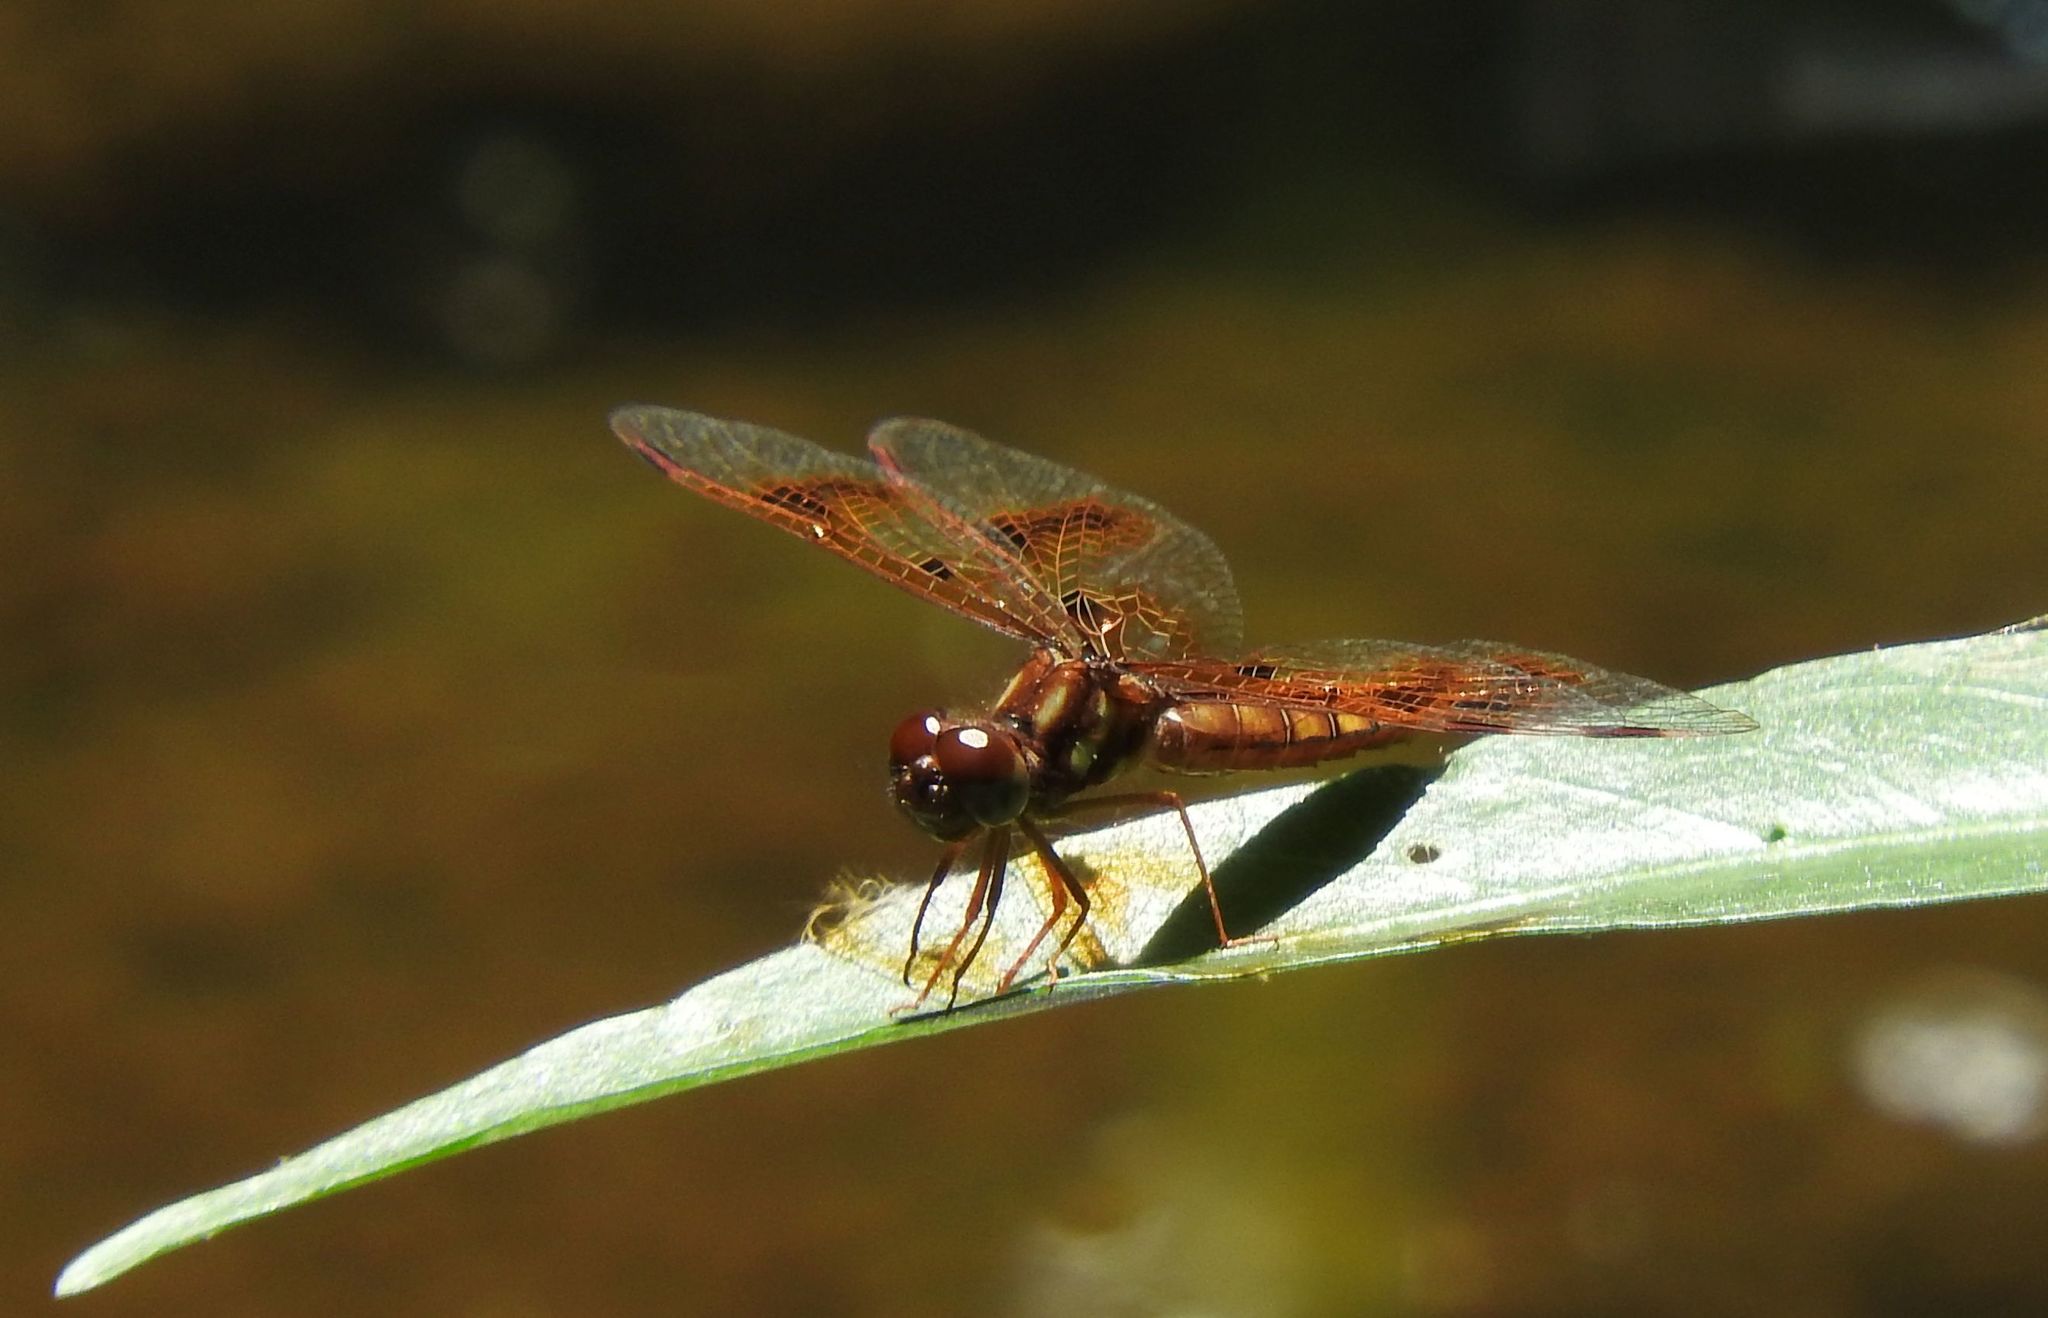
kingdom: Animalia
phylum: Arthropoda
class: Insecta
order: Odonata
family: Libellulidae
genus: Perithemis
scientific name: Perithemis tenera
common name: Eastern amberwing
